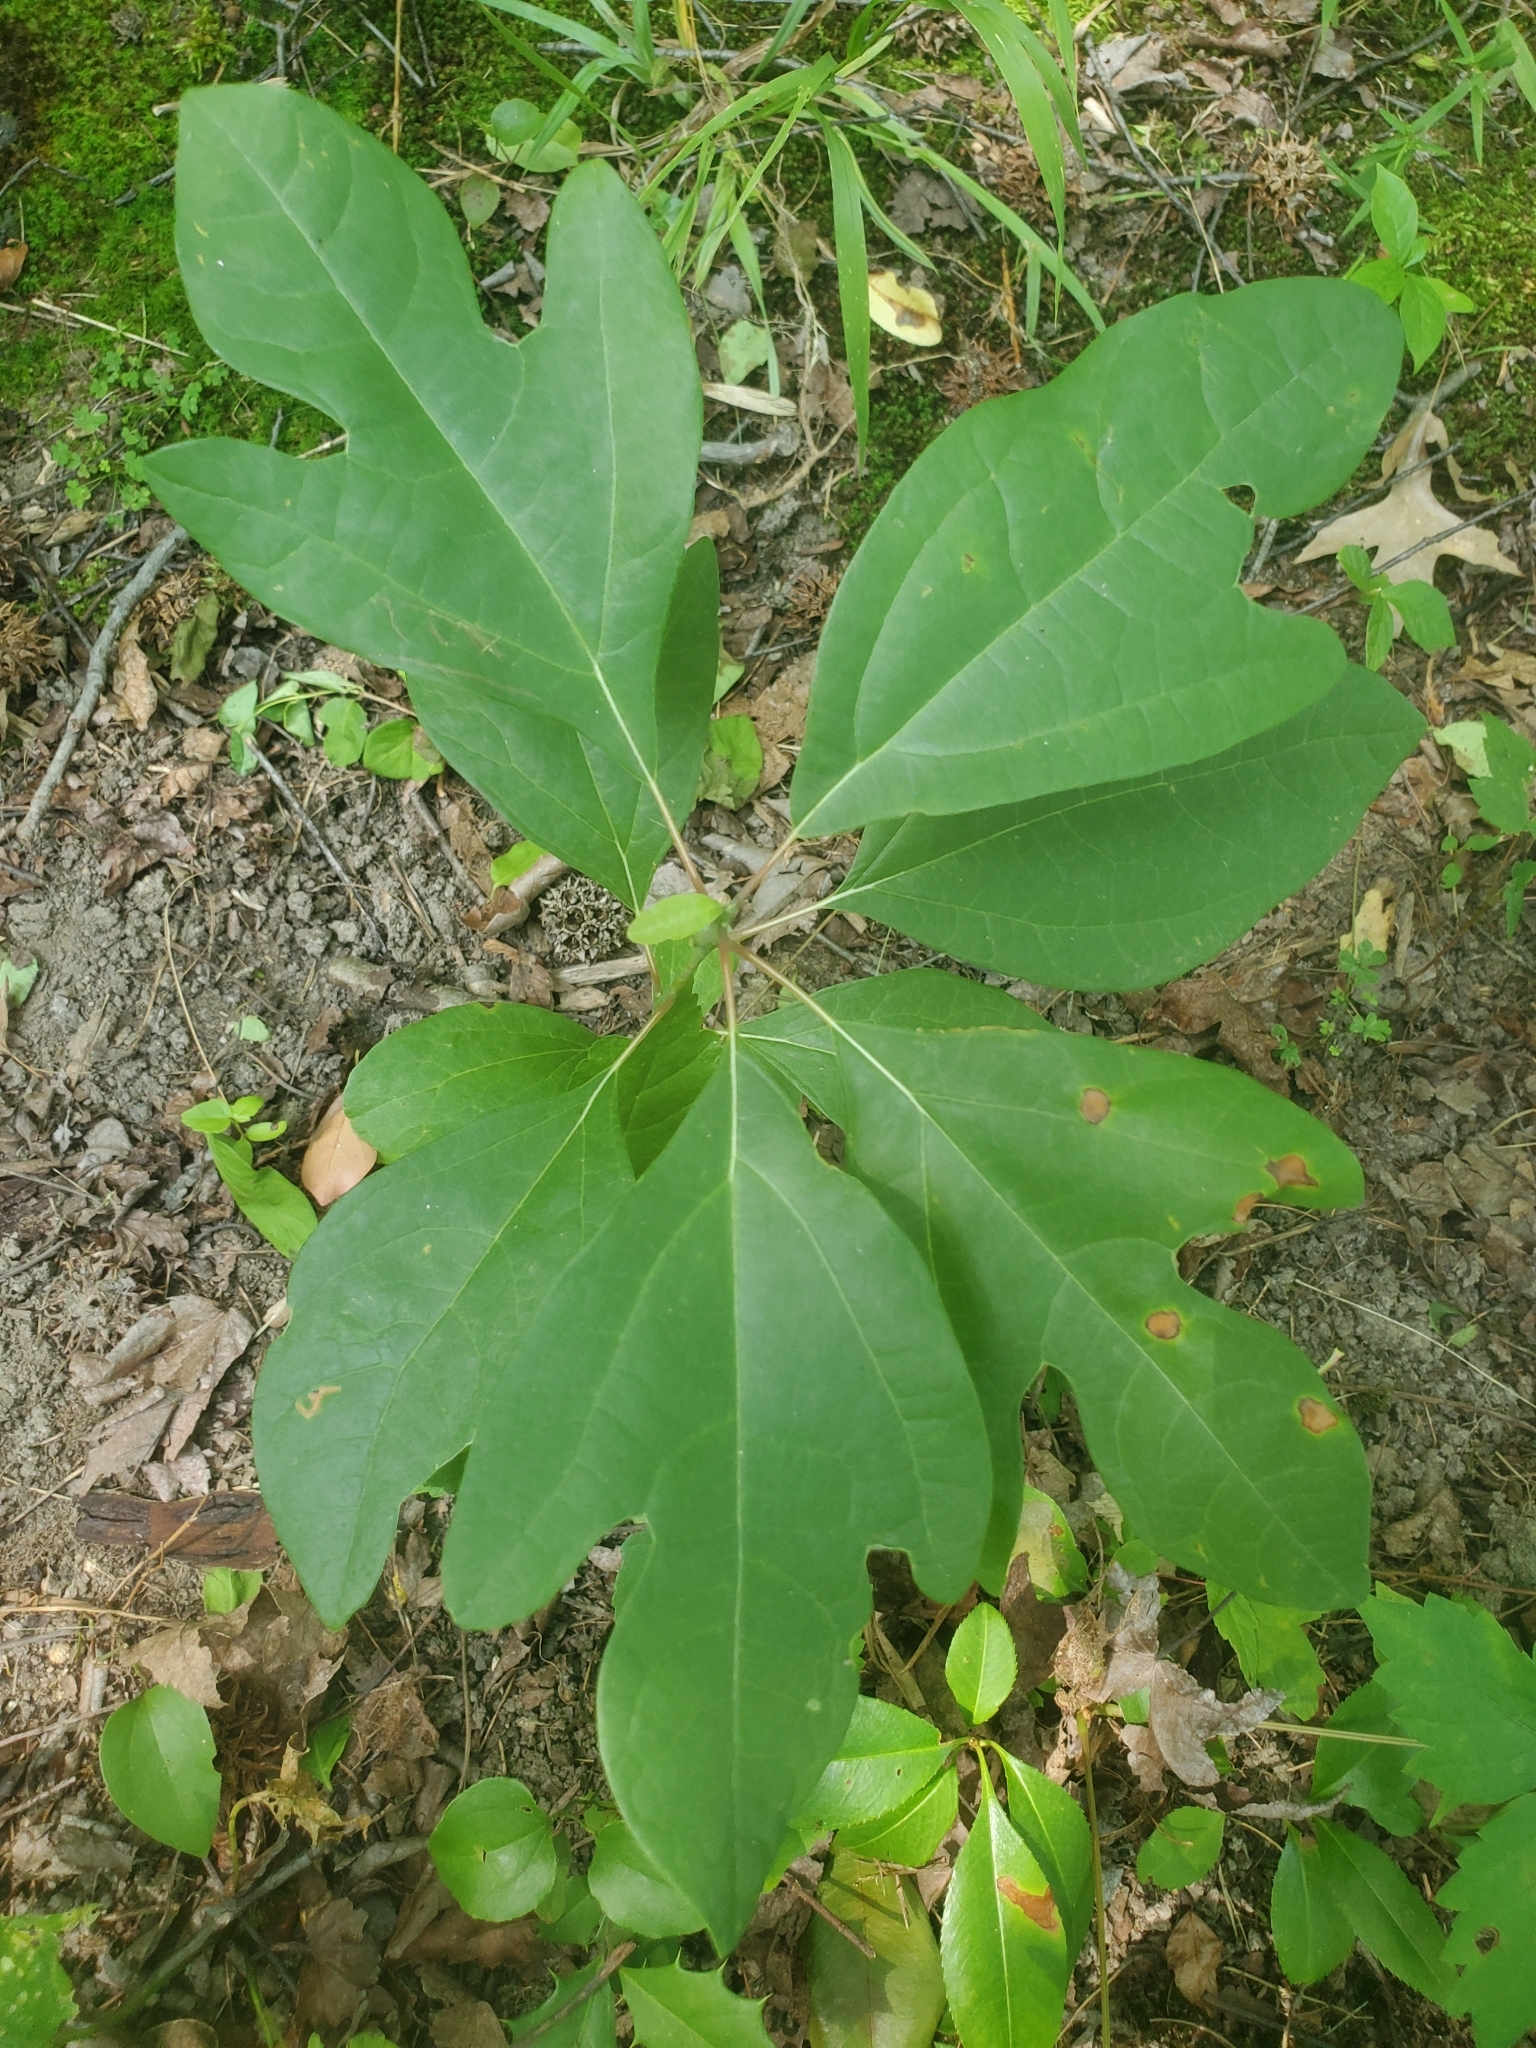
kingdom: Plantae
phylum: Tracheophyta
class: Magnoliopsida
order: Laurales
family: Lauraceae
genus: Sassafras
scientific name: Sassafras albidum
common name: Sassafras
